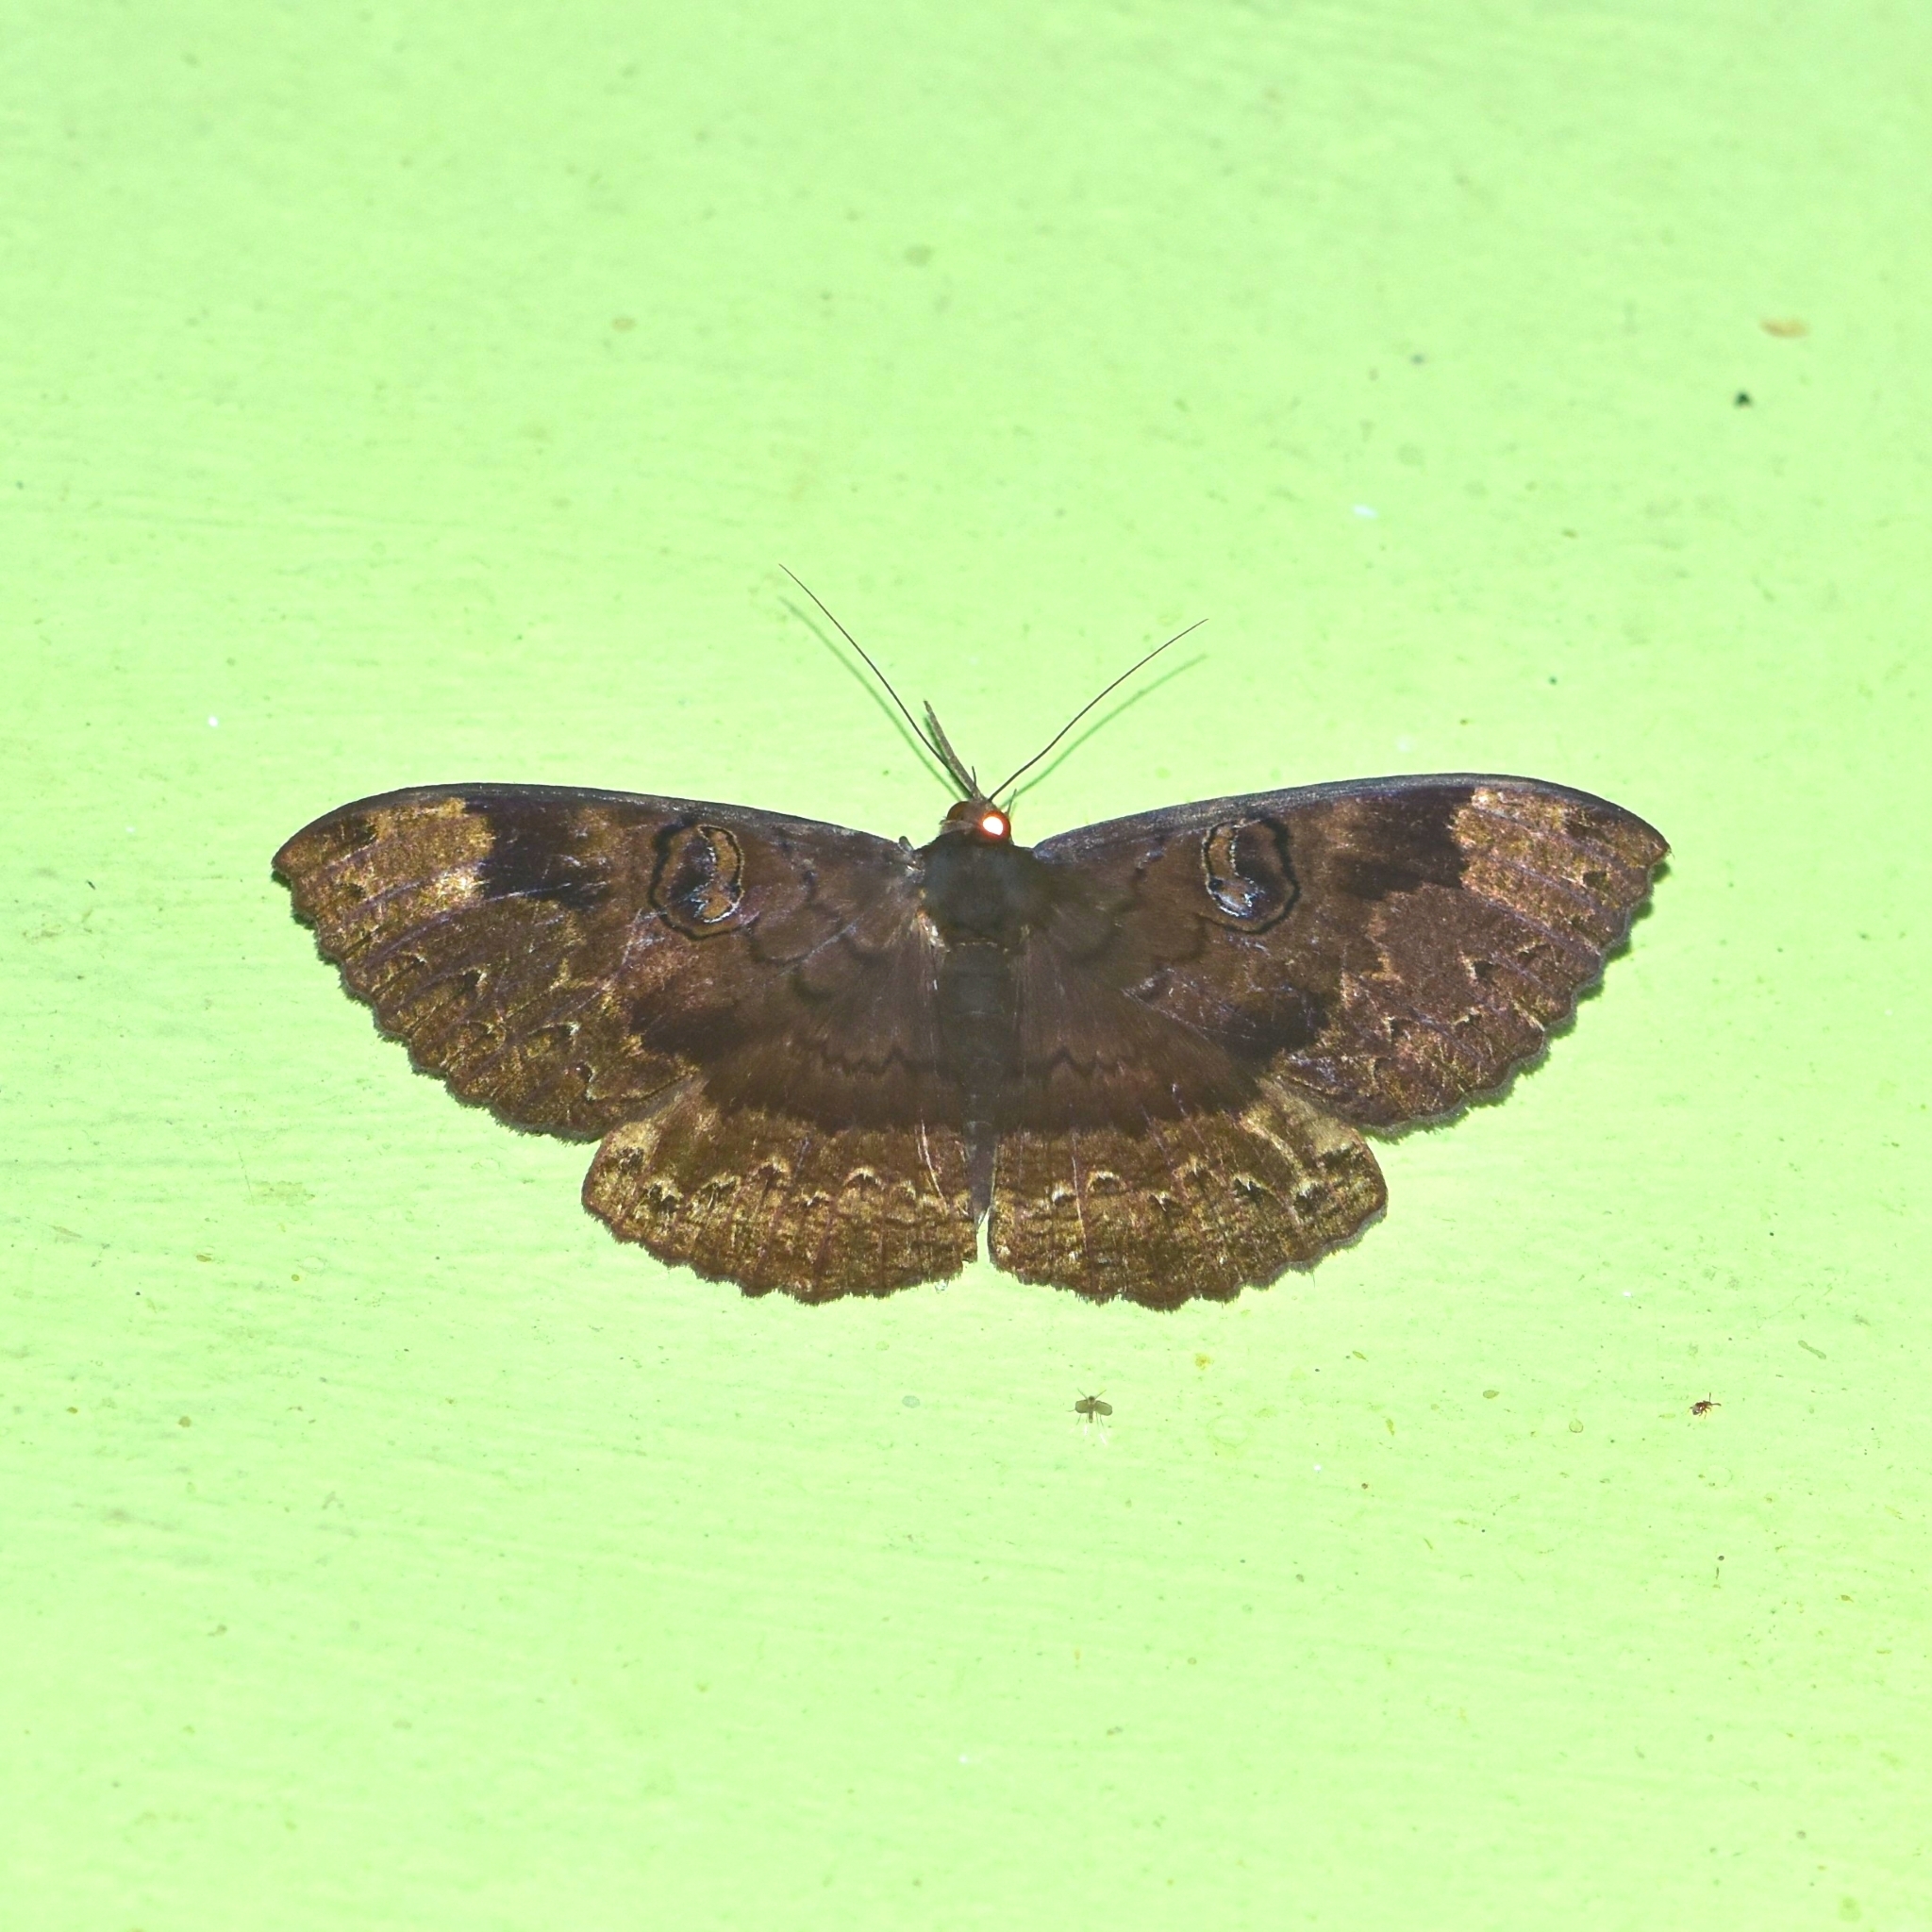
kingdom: Animalia
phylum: Arthropoda
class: Insecta
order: Lepidoptera
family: Erebidae
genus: Erebus
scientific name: Erebus caprimulgus
